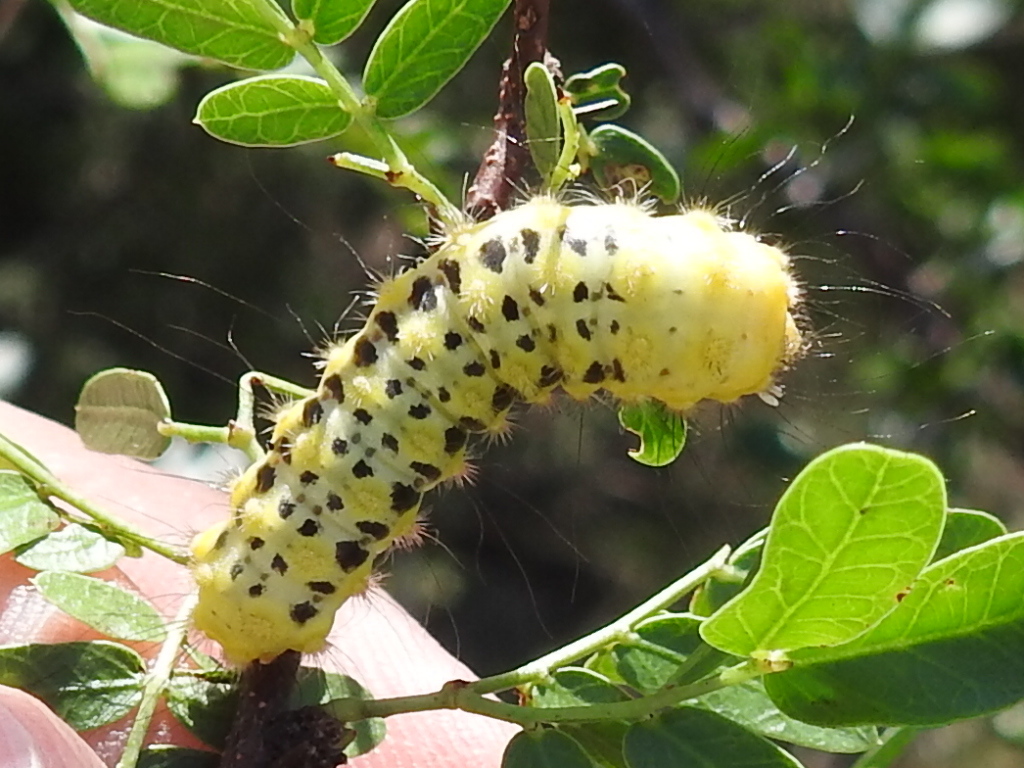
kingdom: Animalia
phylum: Arthropoda
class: Insecta
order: Lepidoptera
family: Megalopygidae
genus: Norape
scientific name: Norape virgo
